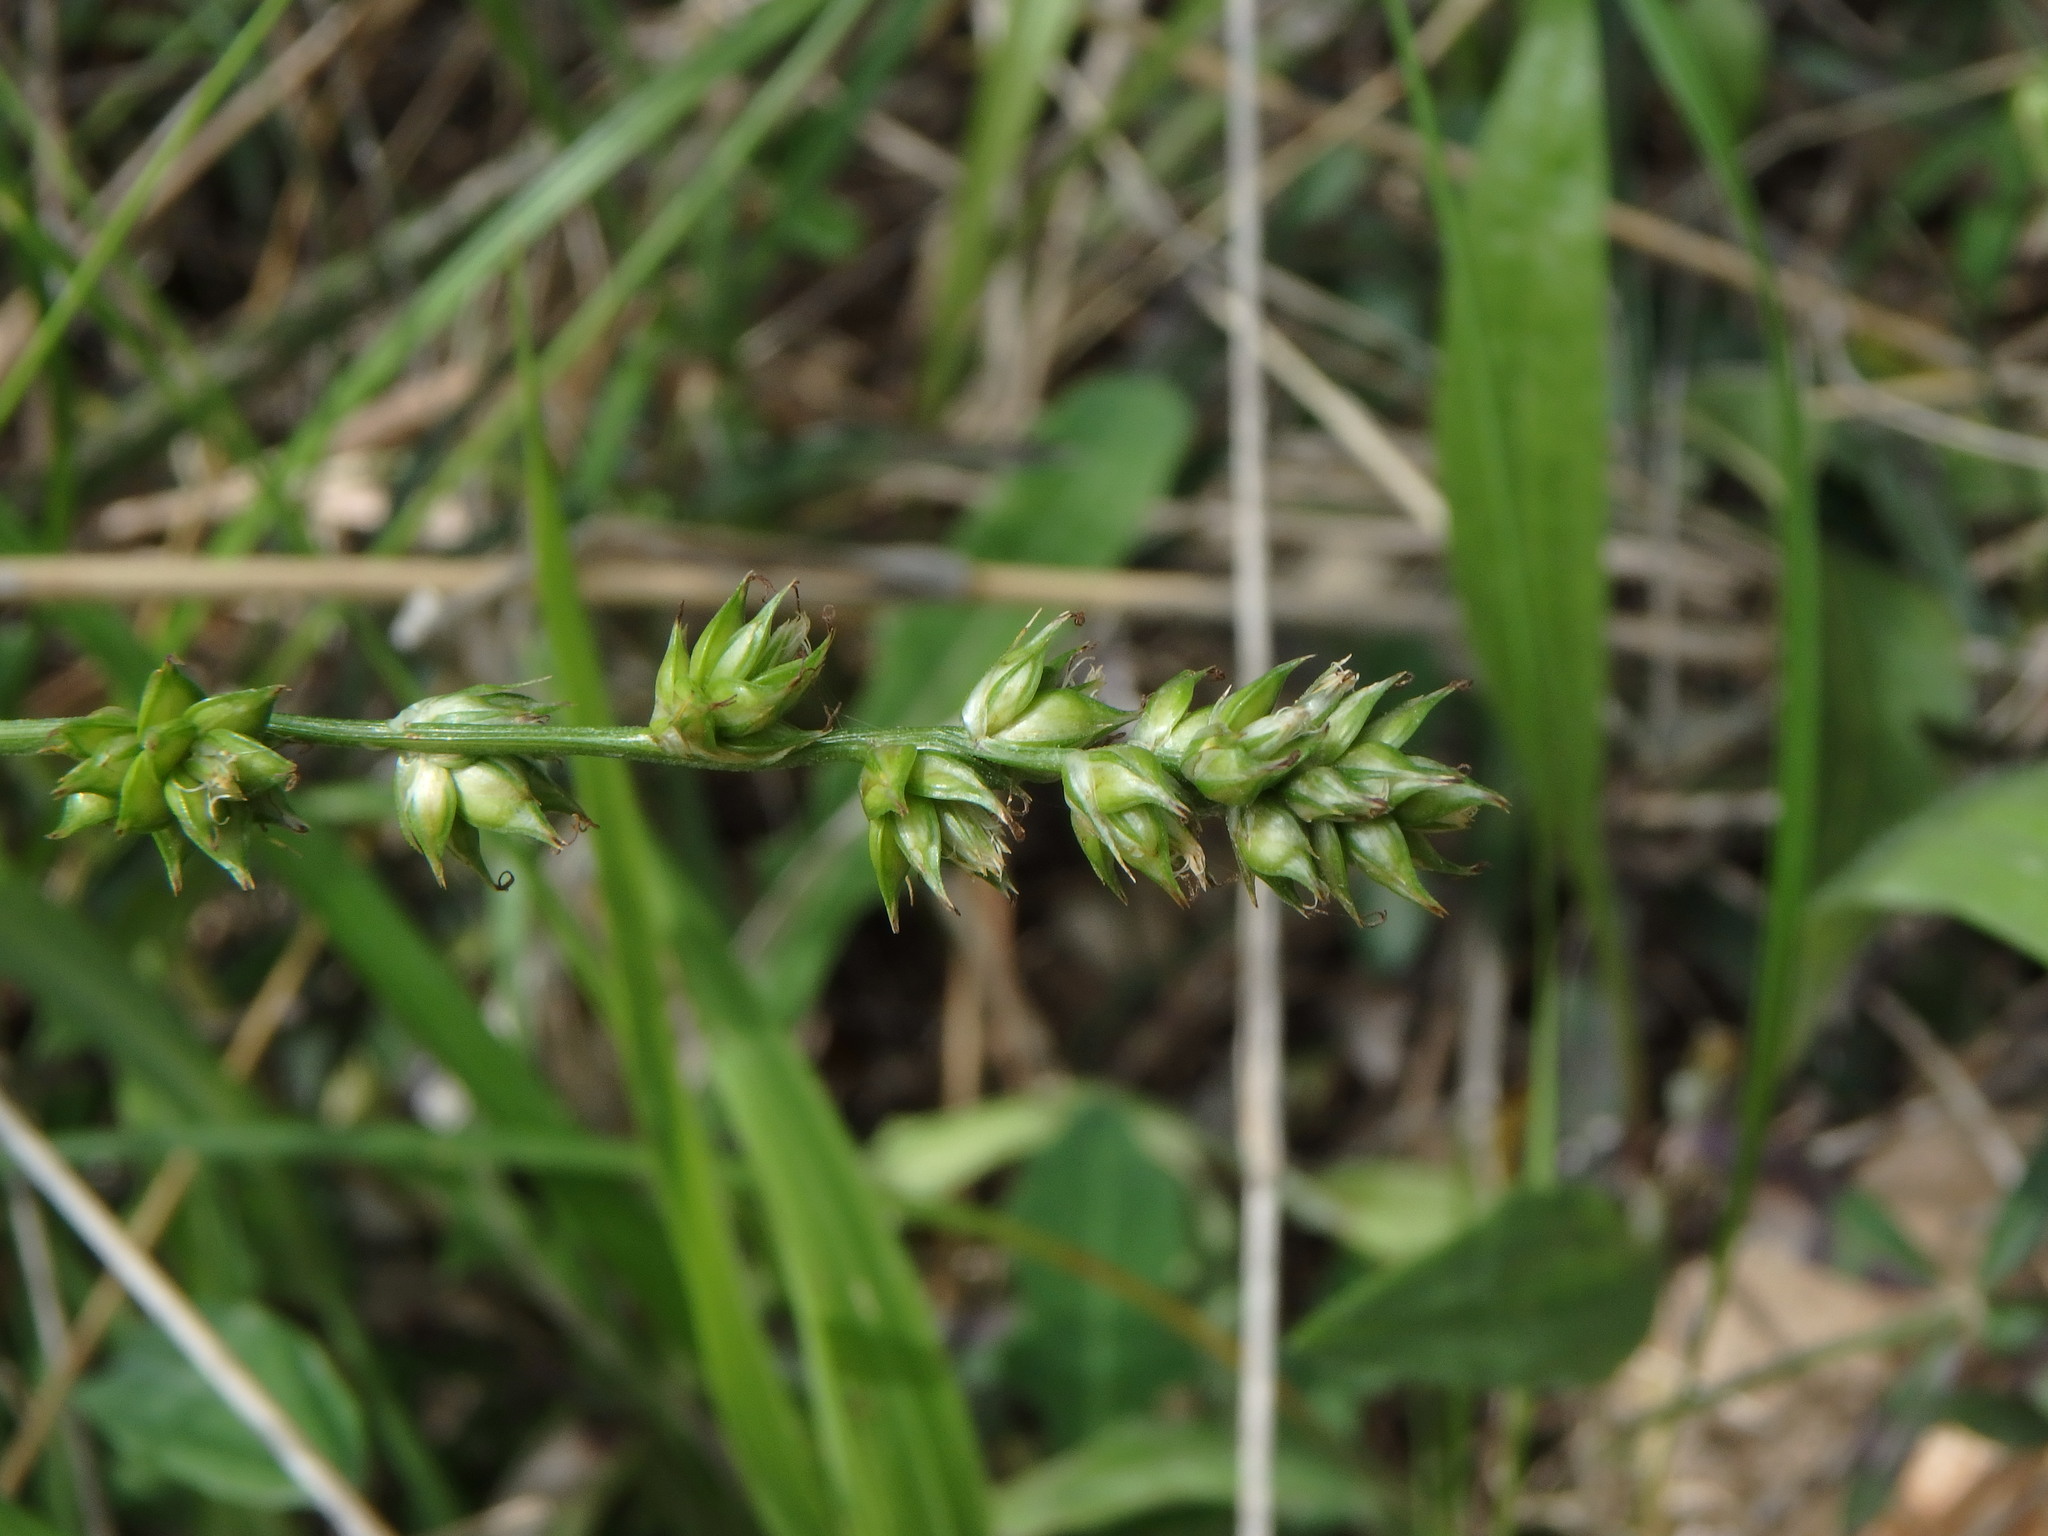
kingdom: Plantae
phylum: Tracheophyta
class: Liliopsida
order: Poales
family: Cyperaceae
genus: Carex
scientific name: Carex divulsa
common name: Grassland sedge
